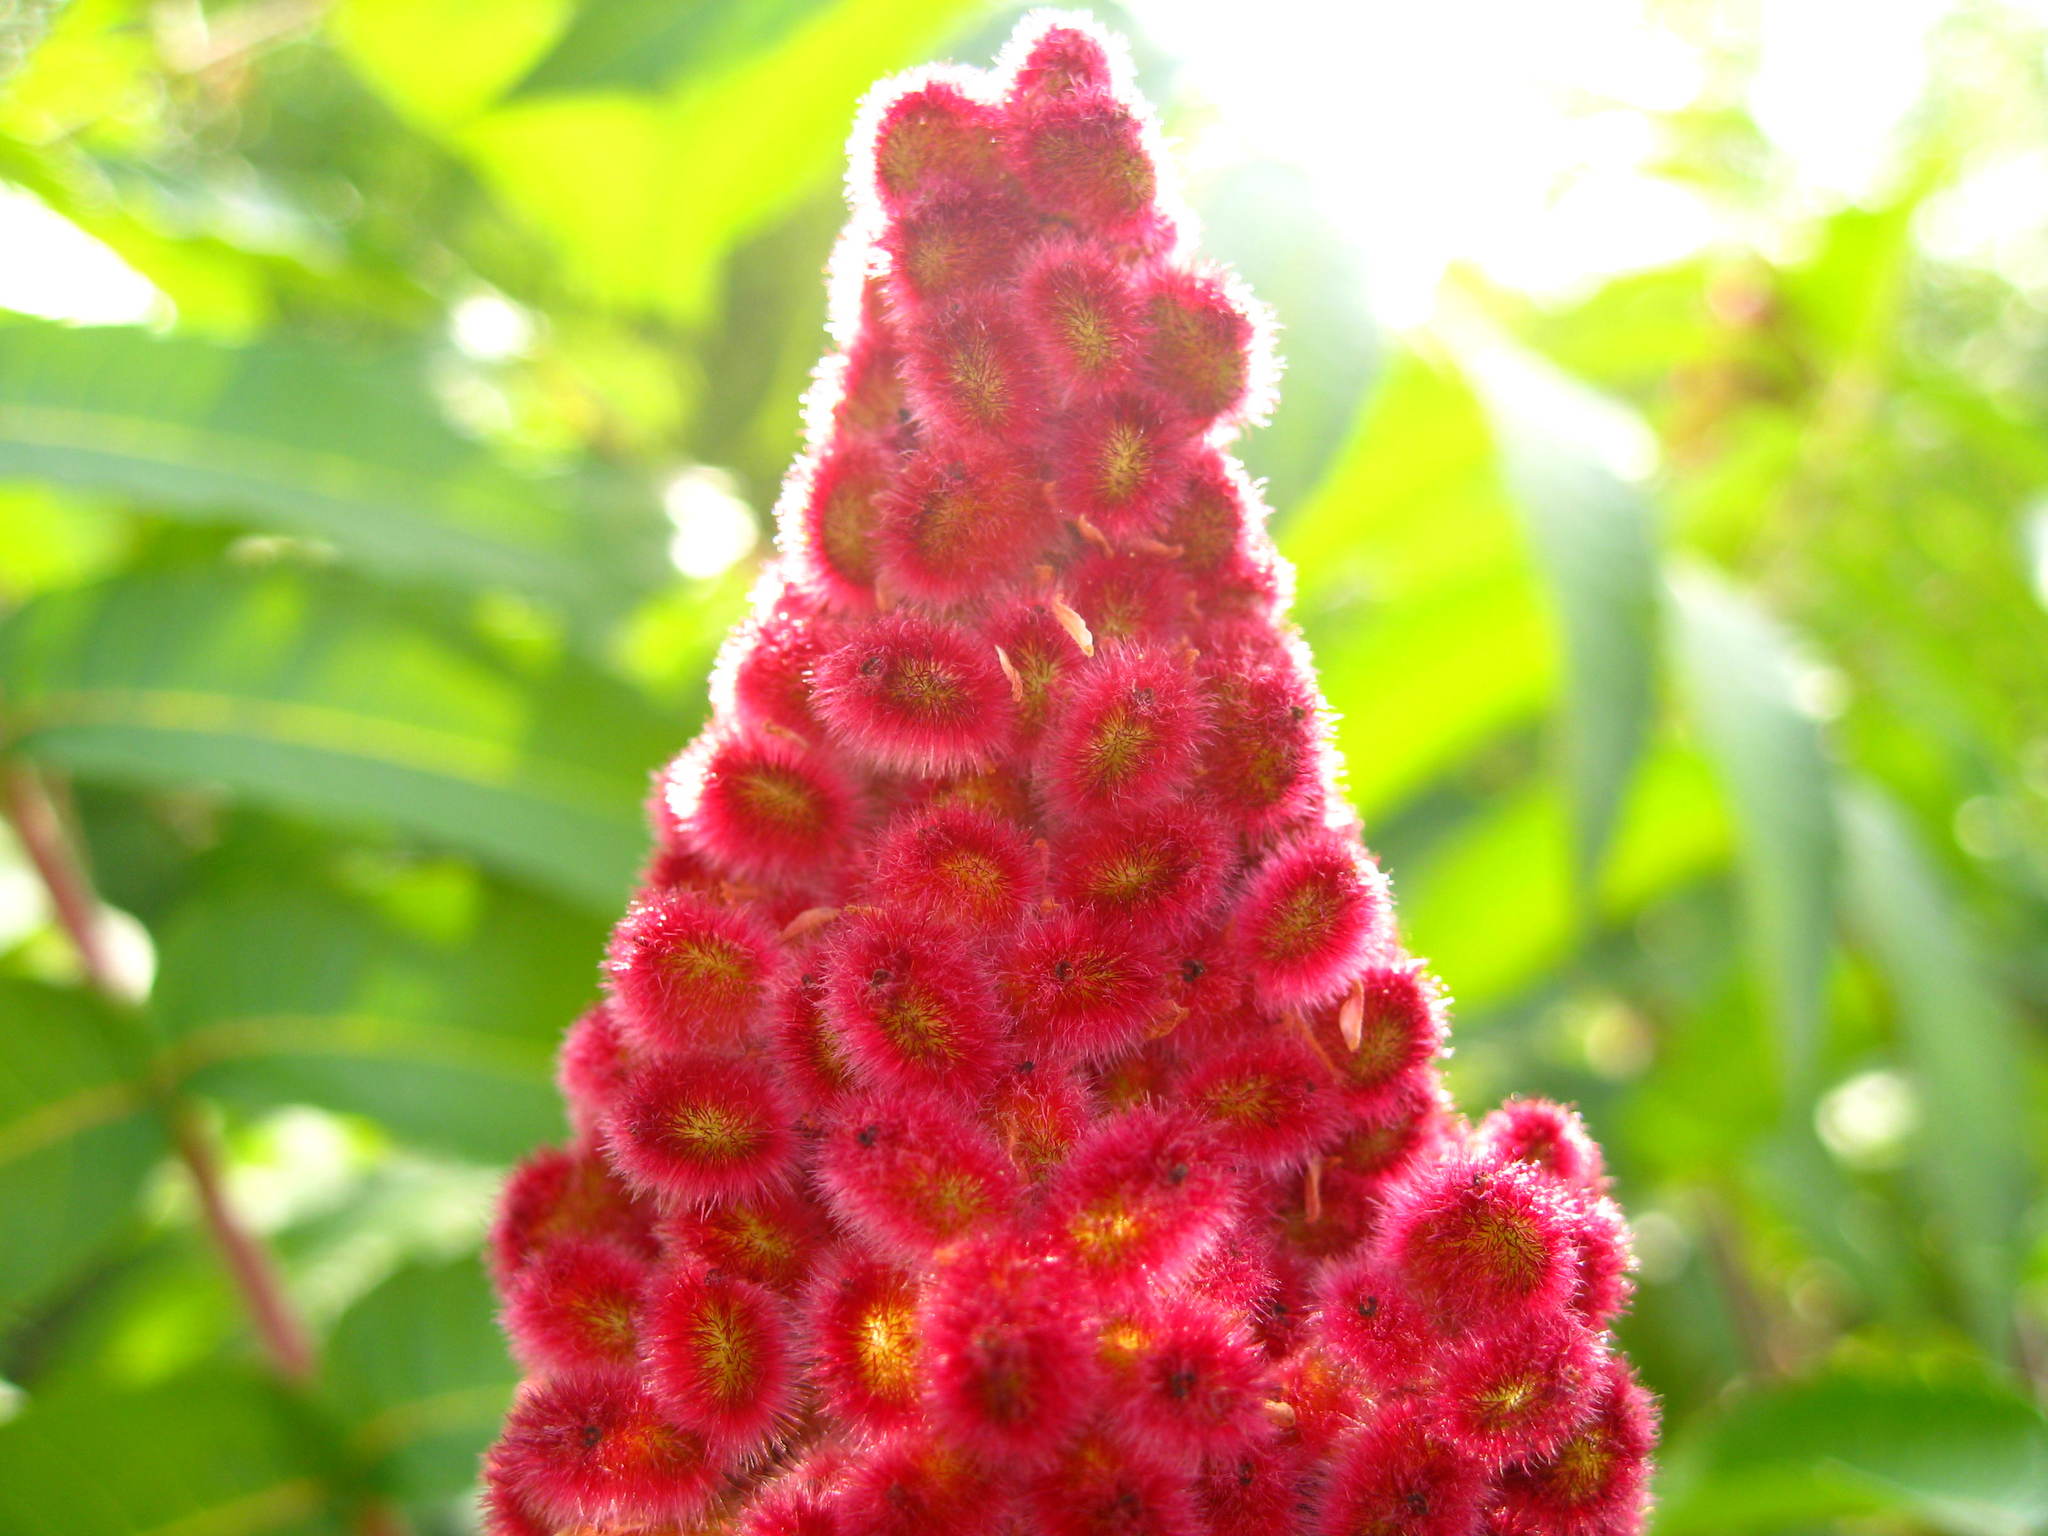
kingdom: Plantae
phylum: Tracheophyta
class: Magnoliopsida
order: Sapindales
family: Anacardiaceae
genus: Rhus
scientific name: Rhus typhina
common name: Staghorn sumac
